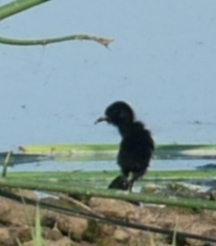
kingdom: Animalia
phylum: Chordata
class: Aves
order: Gruiformes
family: Rallidae
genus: Rallus
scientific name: Rallus limicola
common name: Virginia rail
